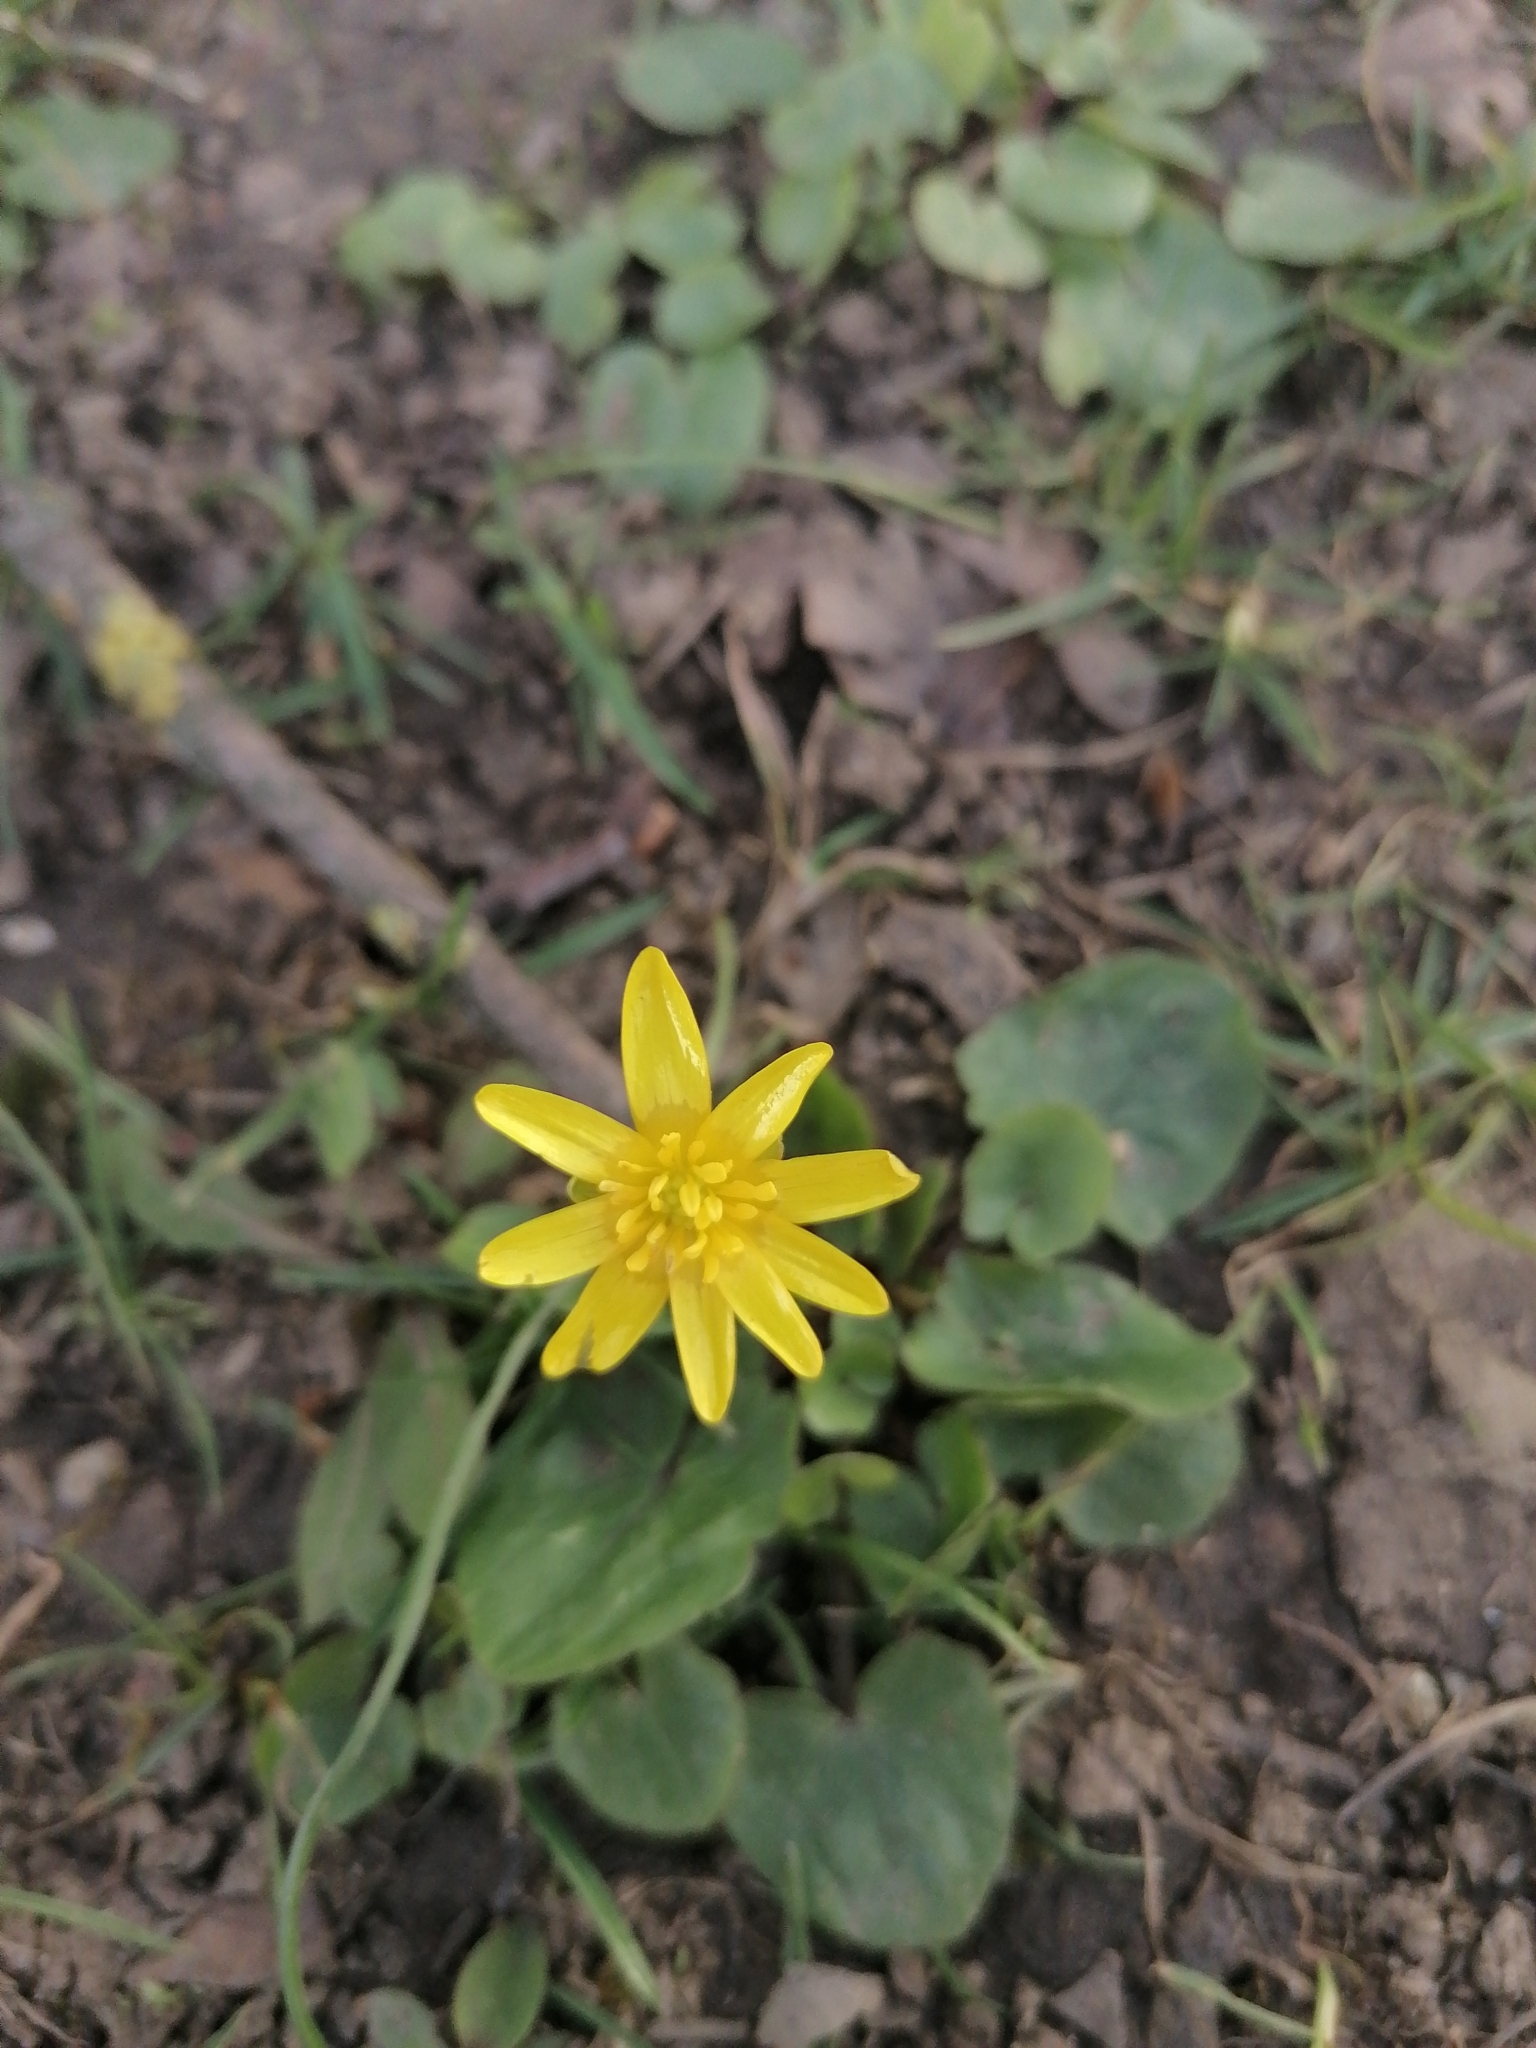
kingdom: Plantae
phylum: Tracheophyta
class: Magnoliopsida
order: Ranunculales
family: Ranunculaceae
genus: Ficaria
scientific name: Ficaria
